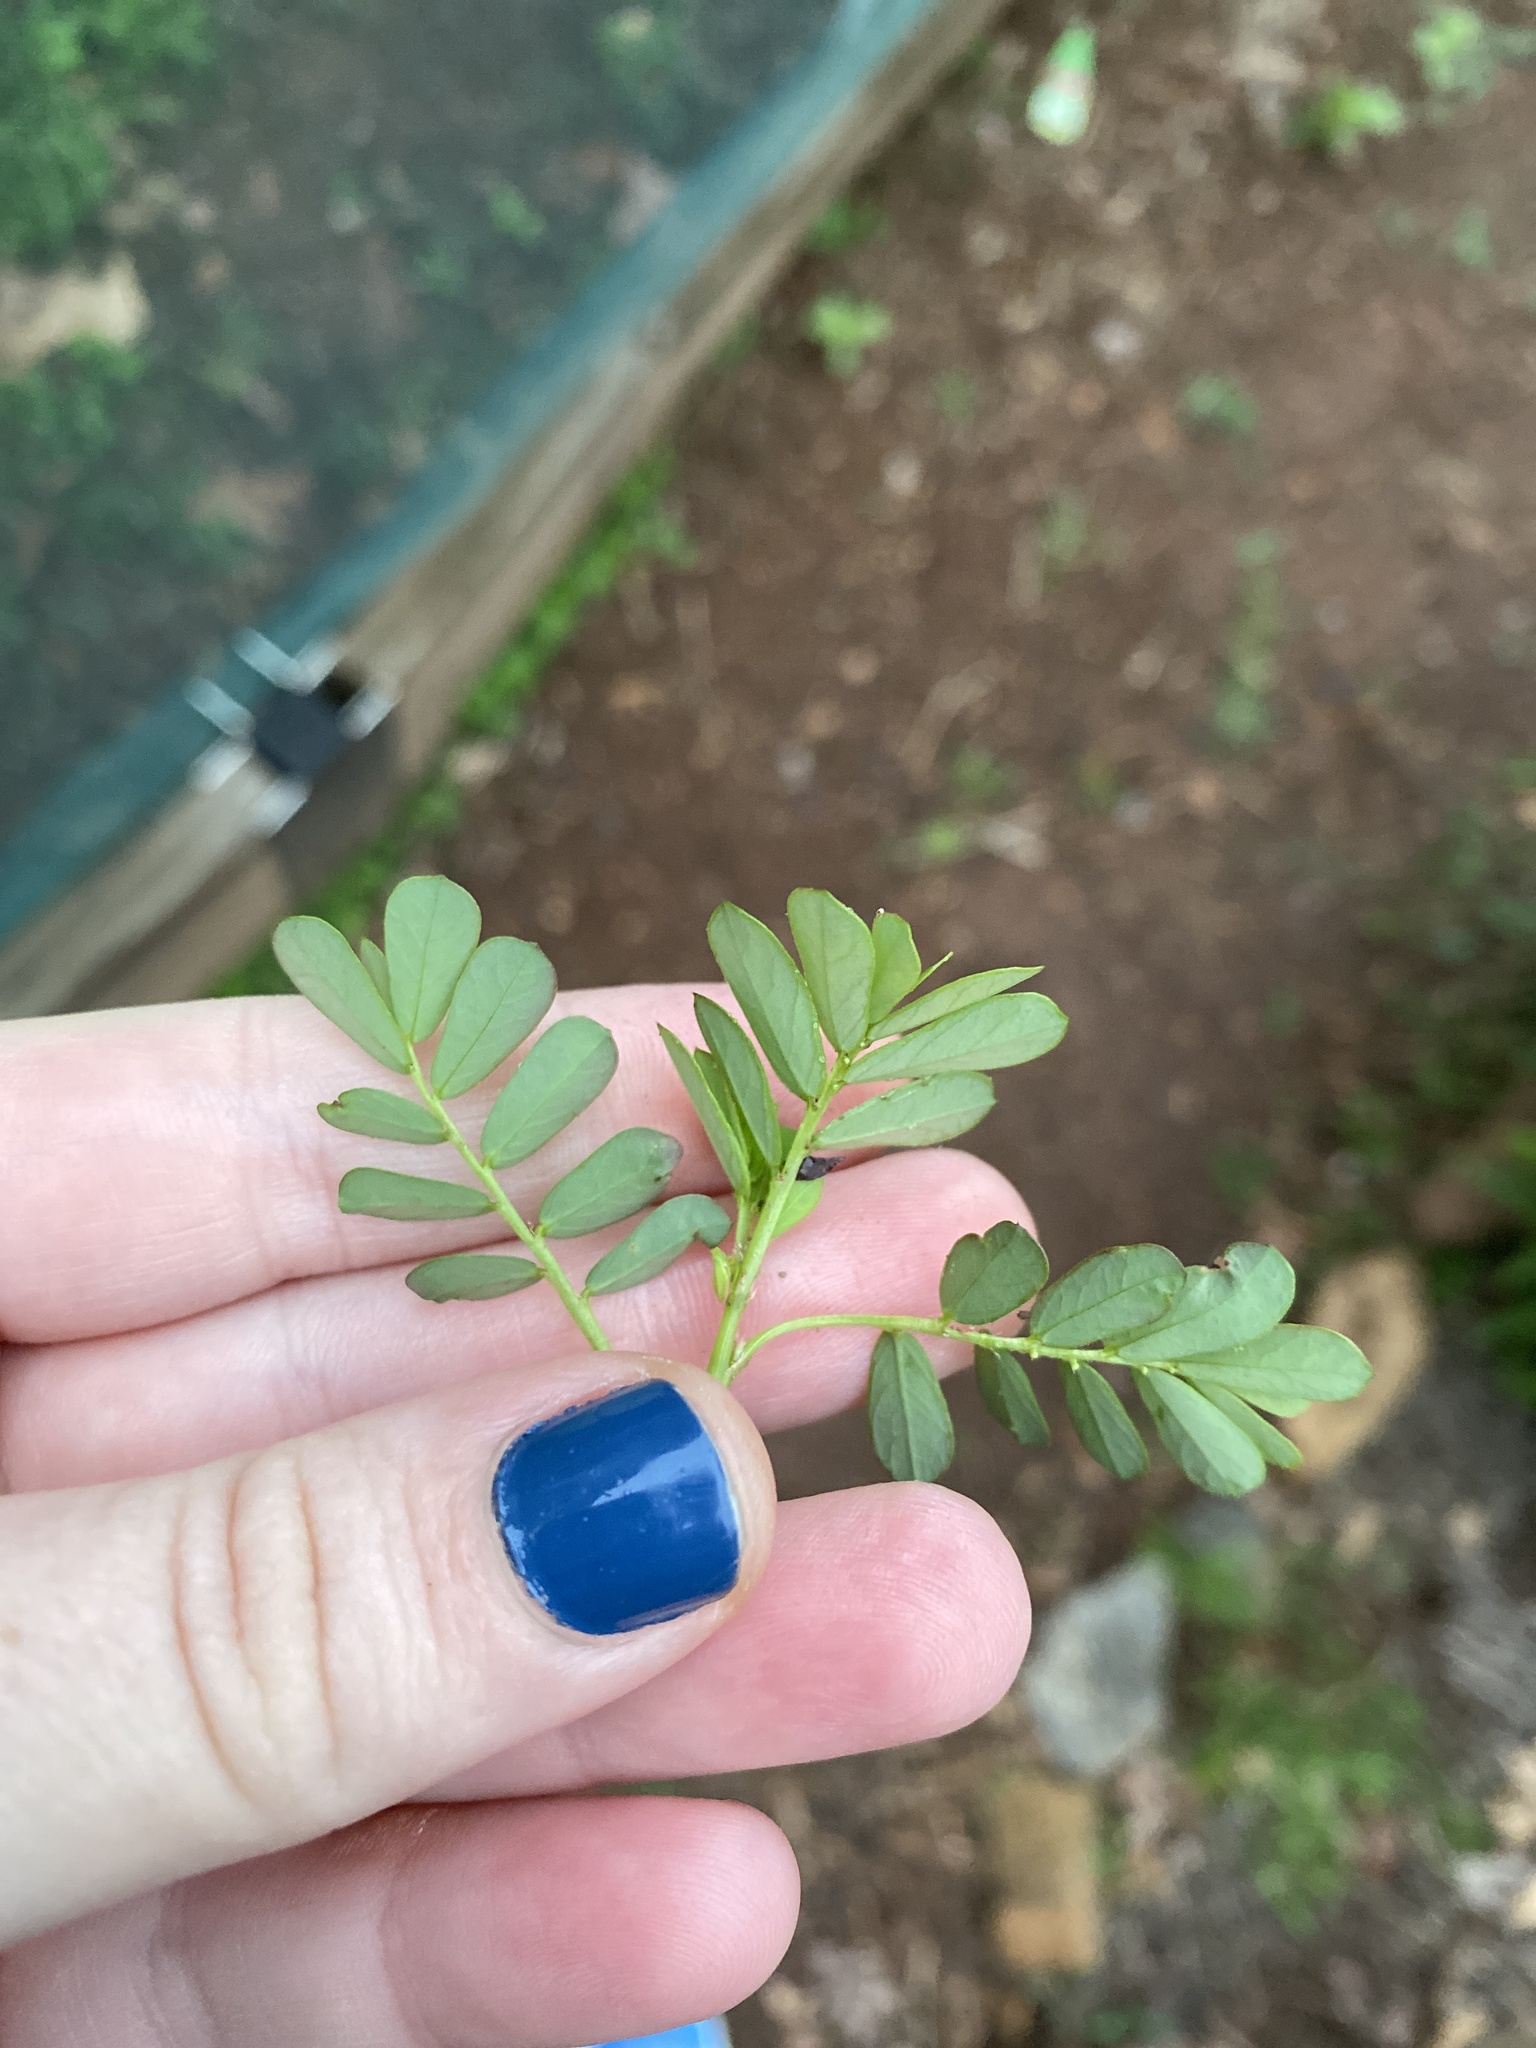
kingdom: Plantae
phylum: Tracheophyta
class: Magnoliopsida
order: Malpighiales
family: Phyllanthaceae
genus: Phyllanthus
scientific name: Phyllanthus urinaria
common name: Chamber bitter
